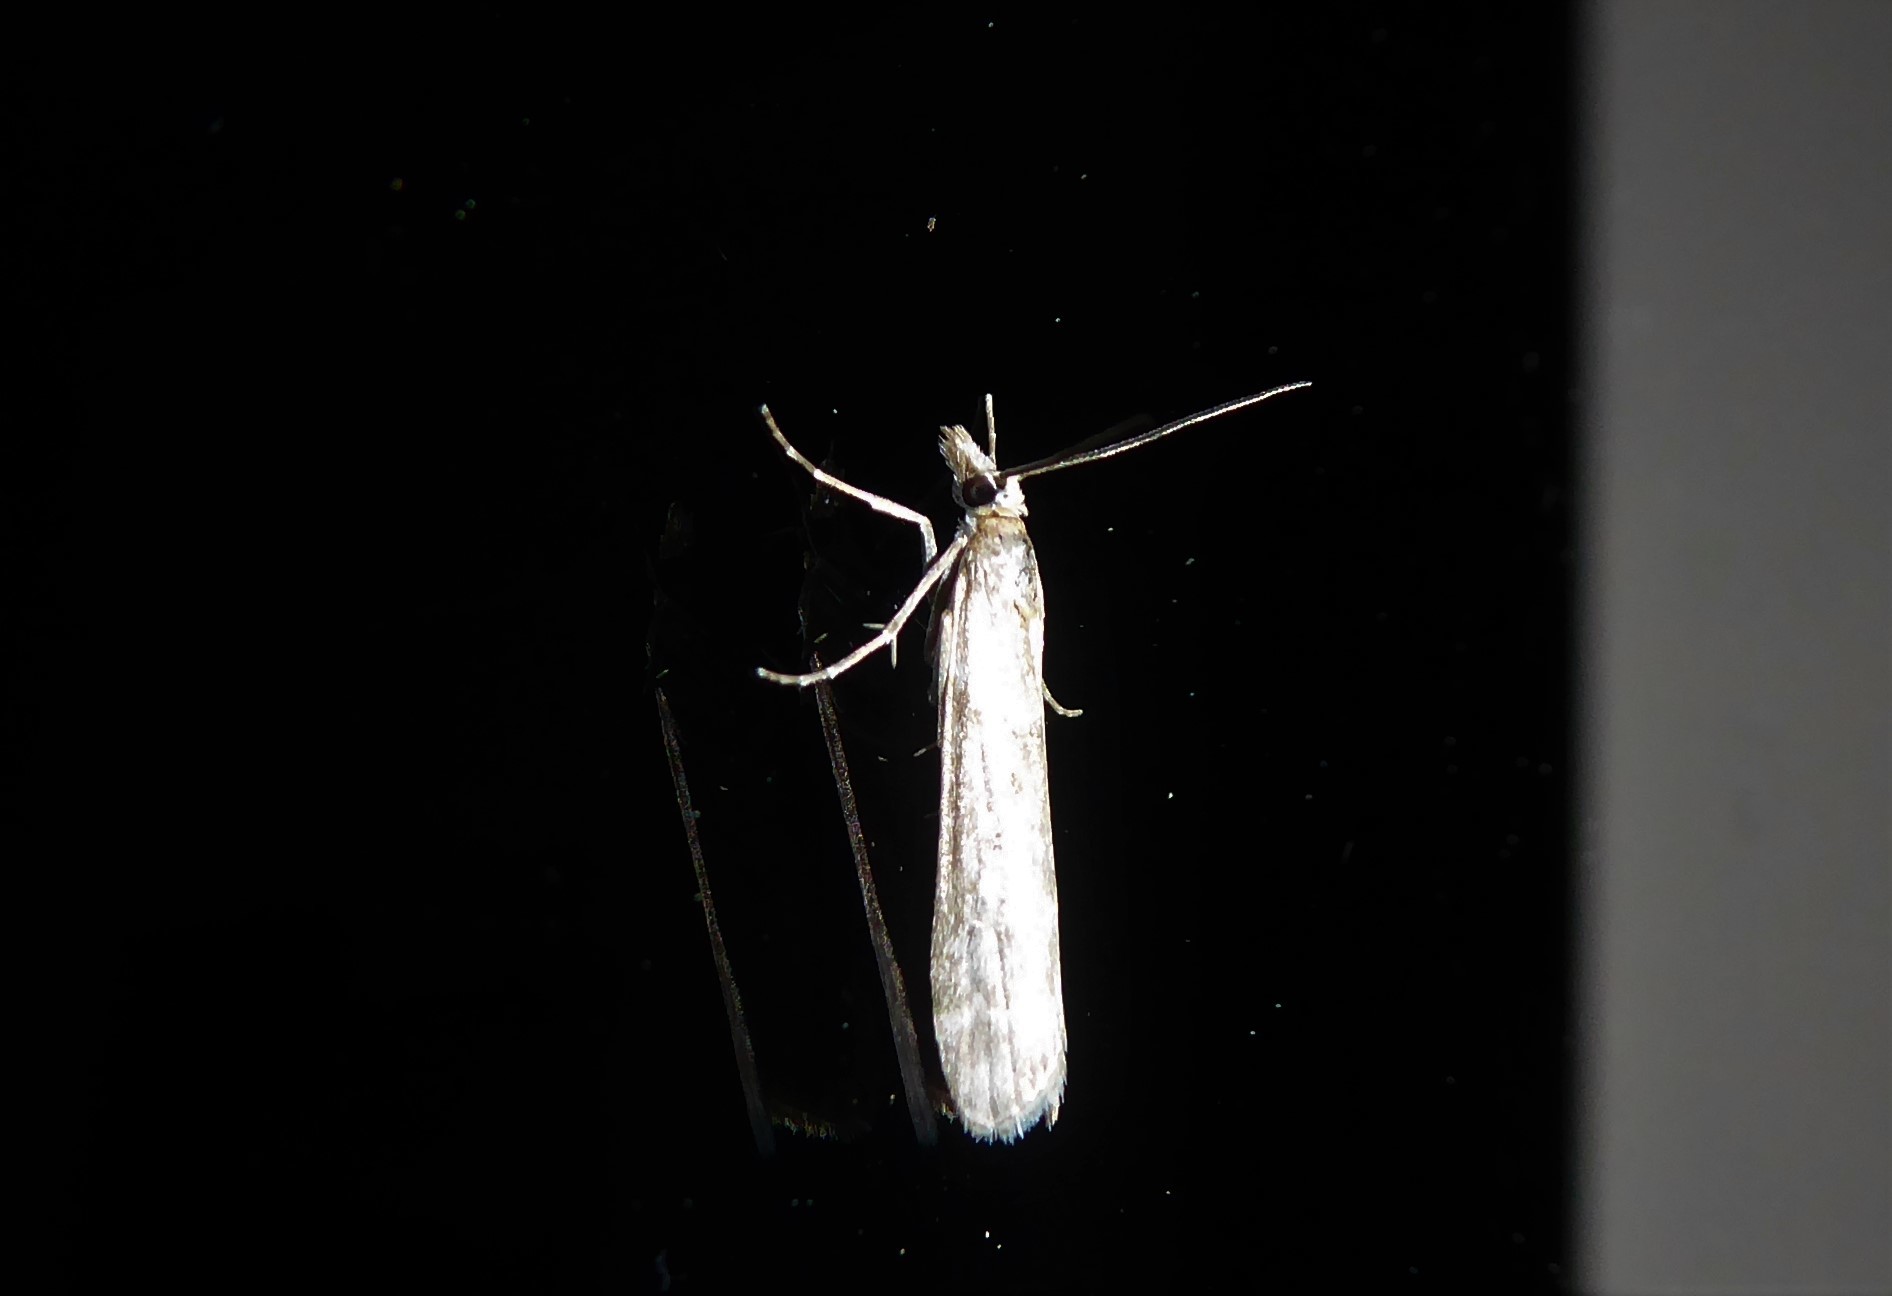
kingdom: Animalia
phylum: Arthropoda
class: Insecta
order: Lepidoptera
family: Crambidae
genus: Eudonia
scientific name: Eudonia leptalea
